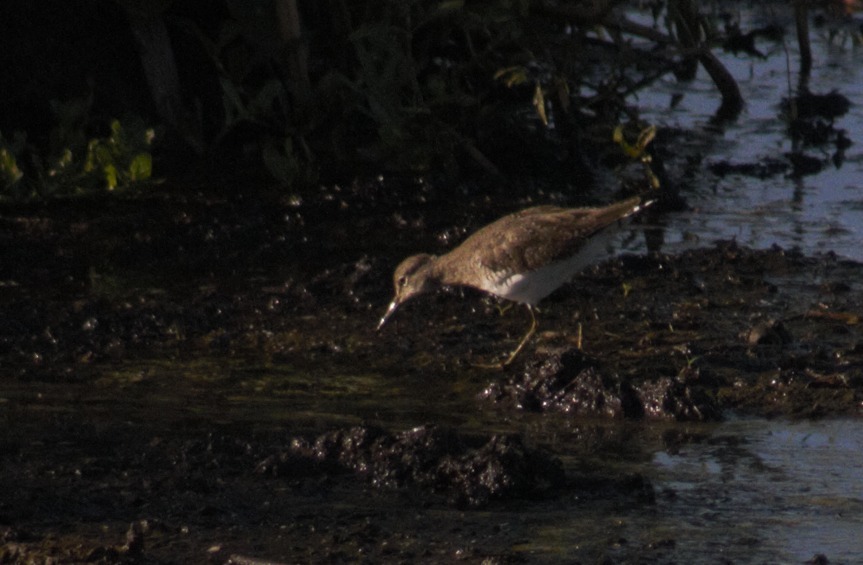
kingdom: Animalia
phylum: Chordata
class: Aves
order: Charadriiformes
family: Scolopacidae
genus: Tringa
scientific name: Tringa solitaria
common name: Solitary sandpiper
